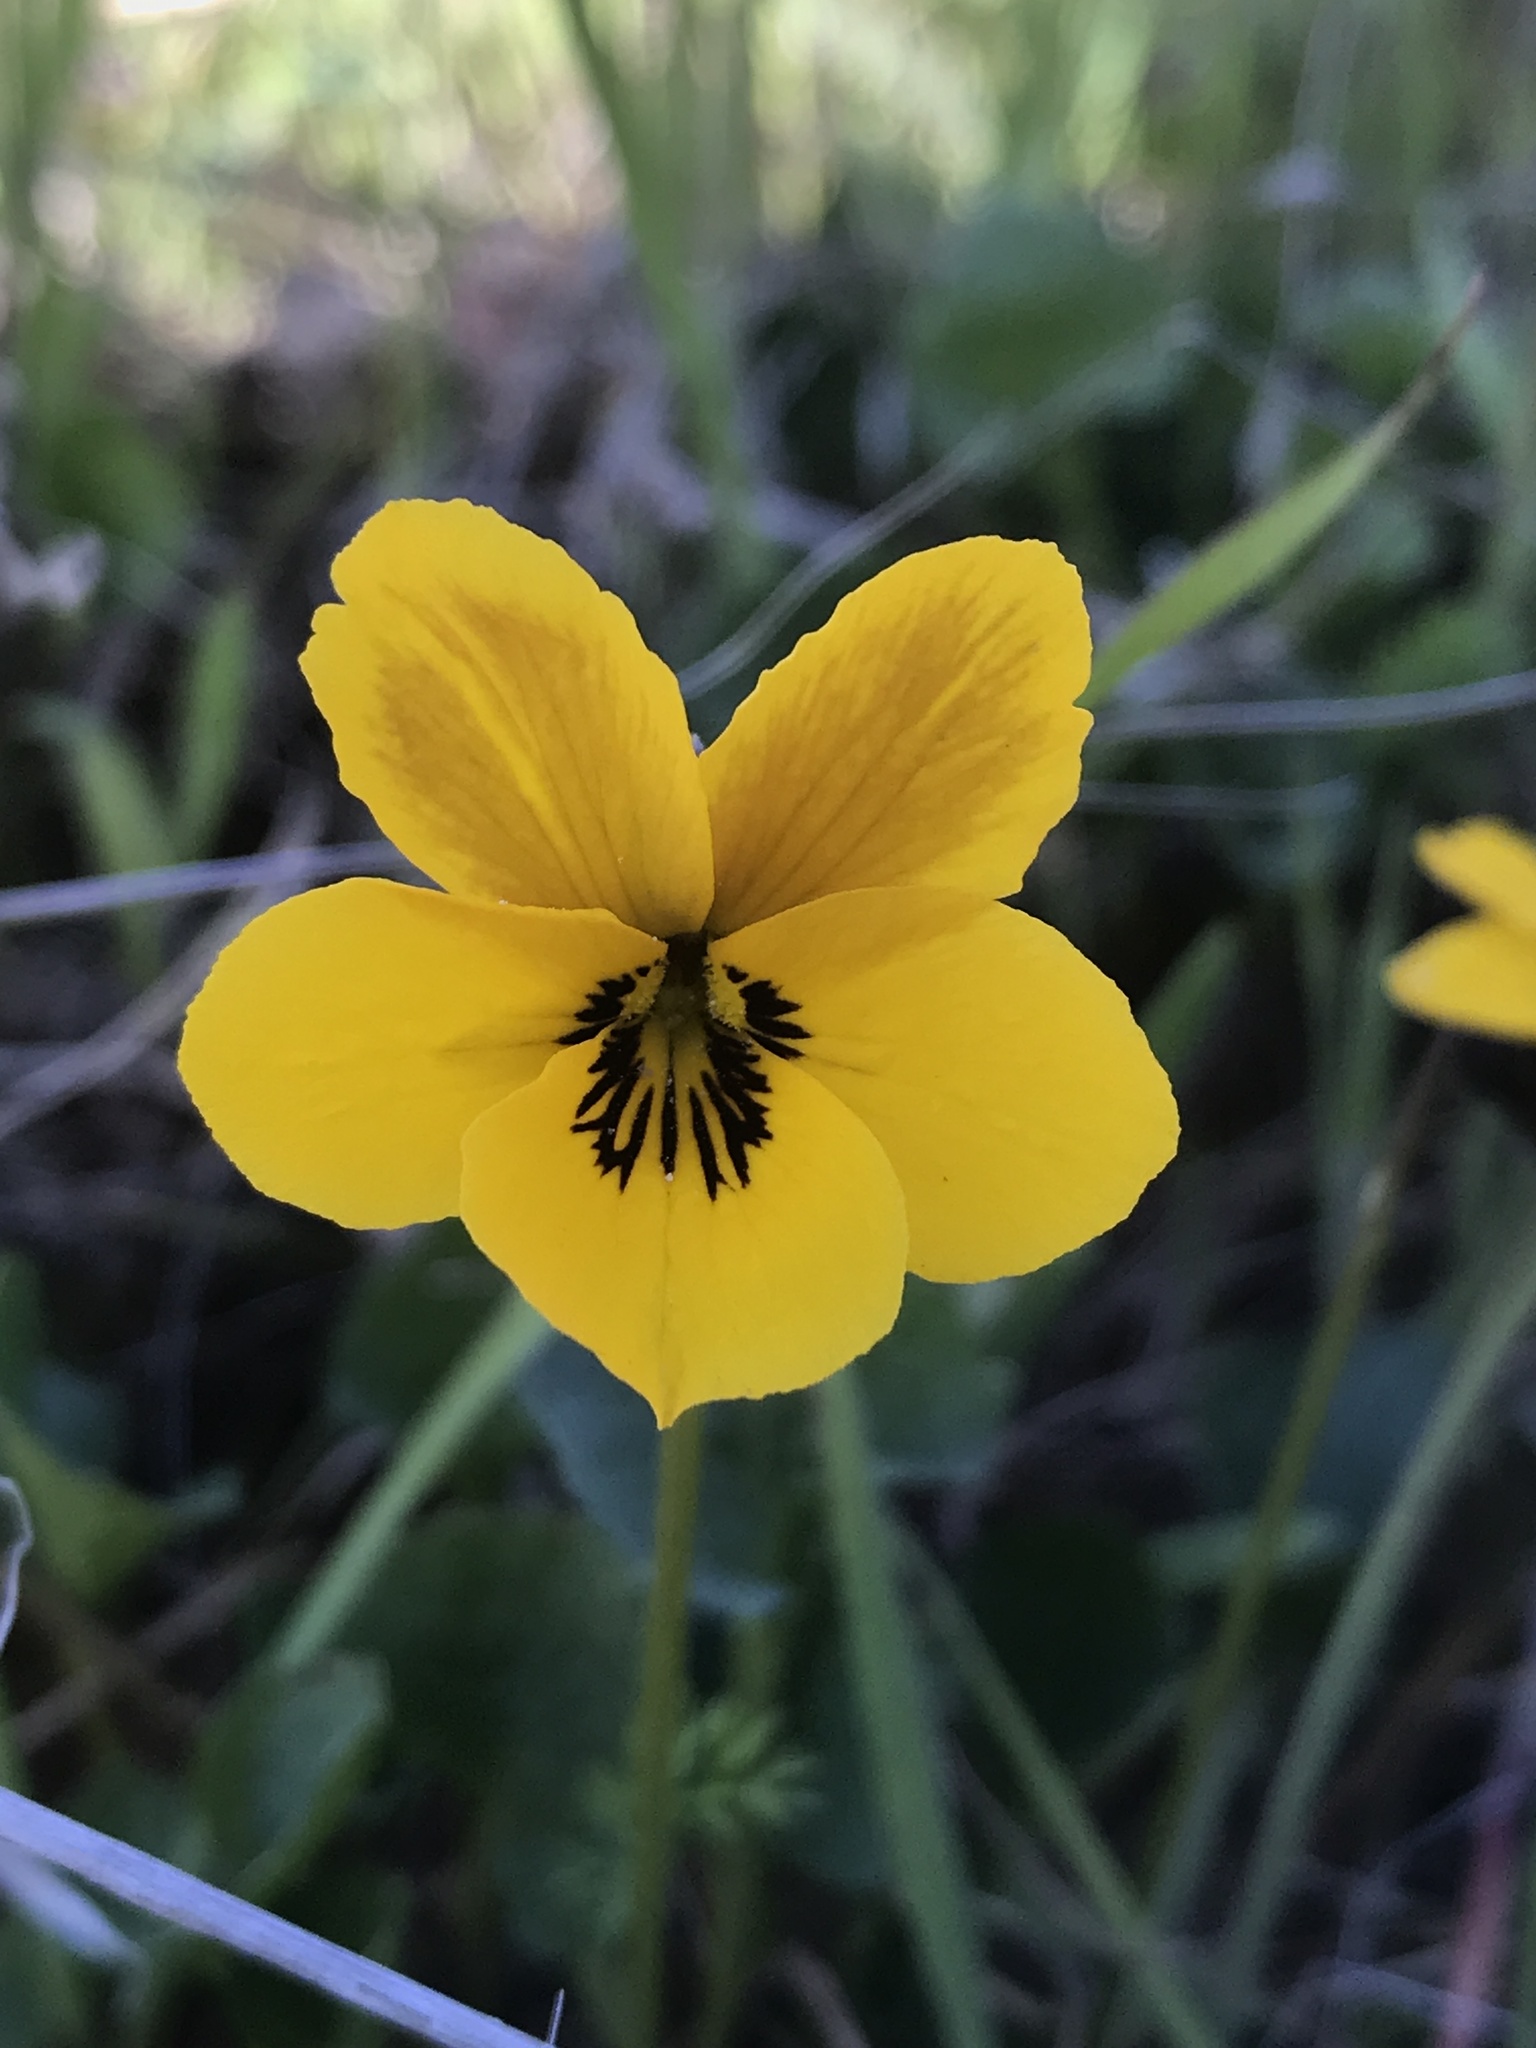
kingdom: Plantae
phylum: Tracheophyta
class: Magnoliopsida
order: Malpighiales
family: Violaceae
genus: Viola
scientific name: Viola pedunculata
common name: California golden violet
